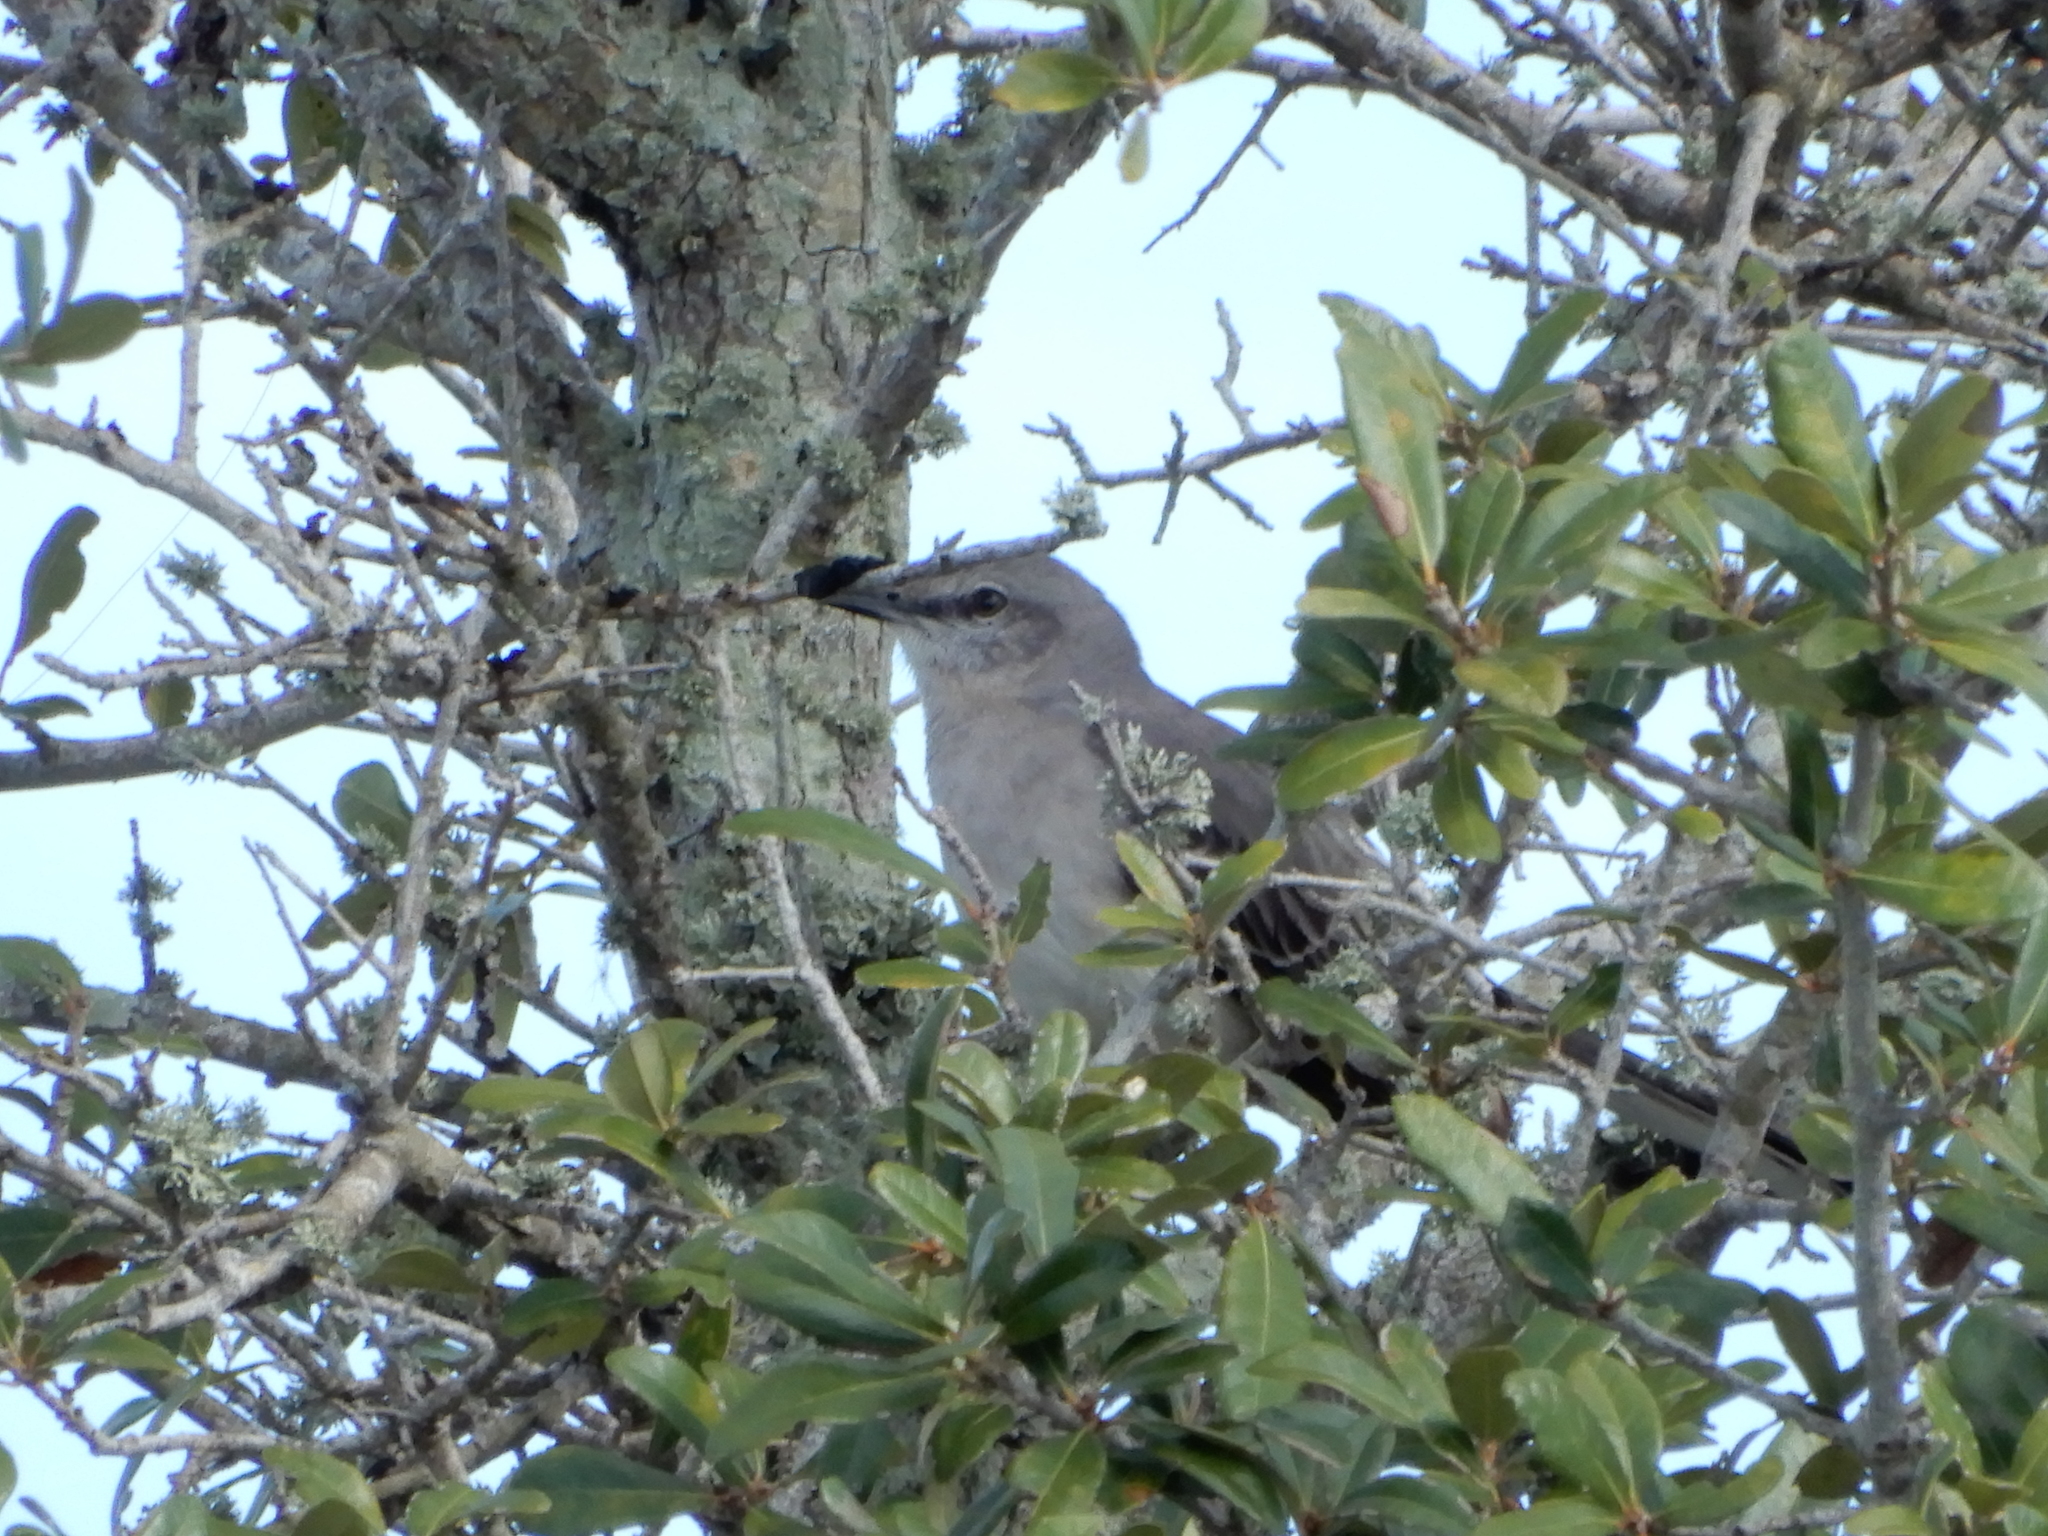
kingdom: Animalia
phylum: Chordata
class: Aves
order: Passeriformes
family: Mimidae
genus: Mimus
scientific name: Mimus polyglottos
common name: Northern mockingbird
